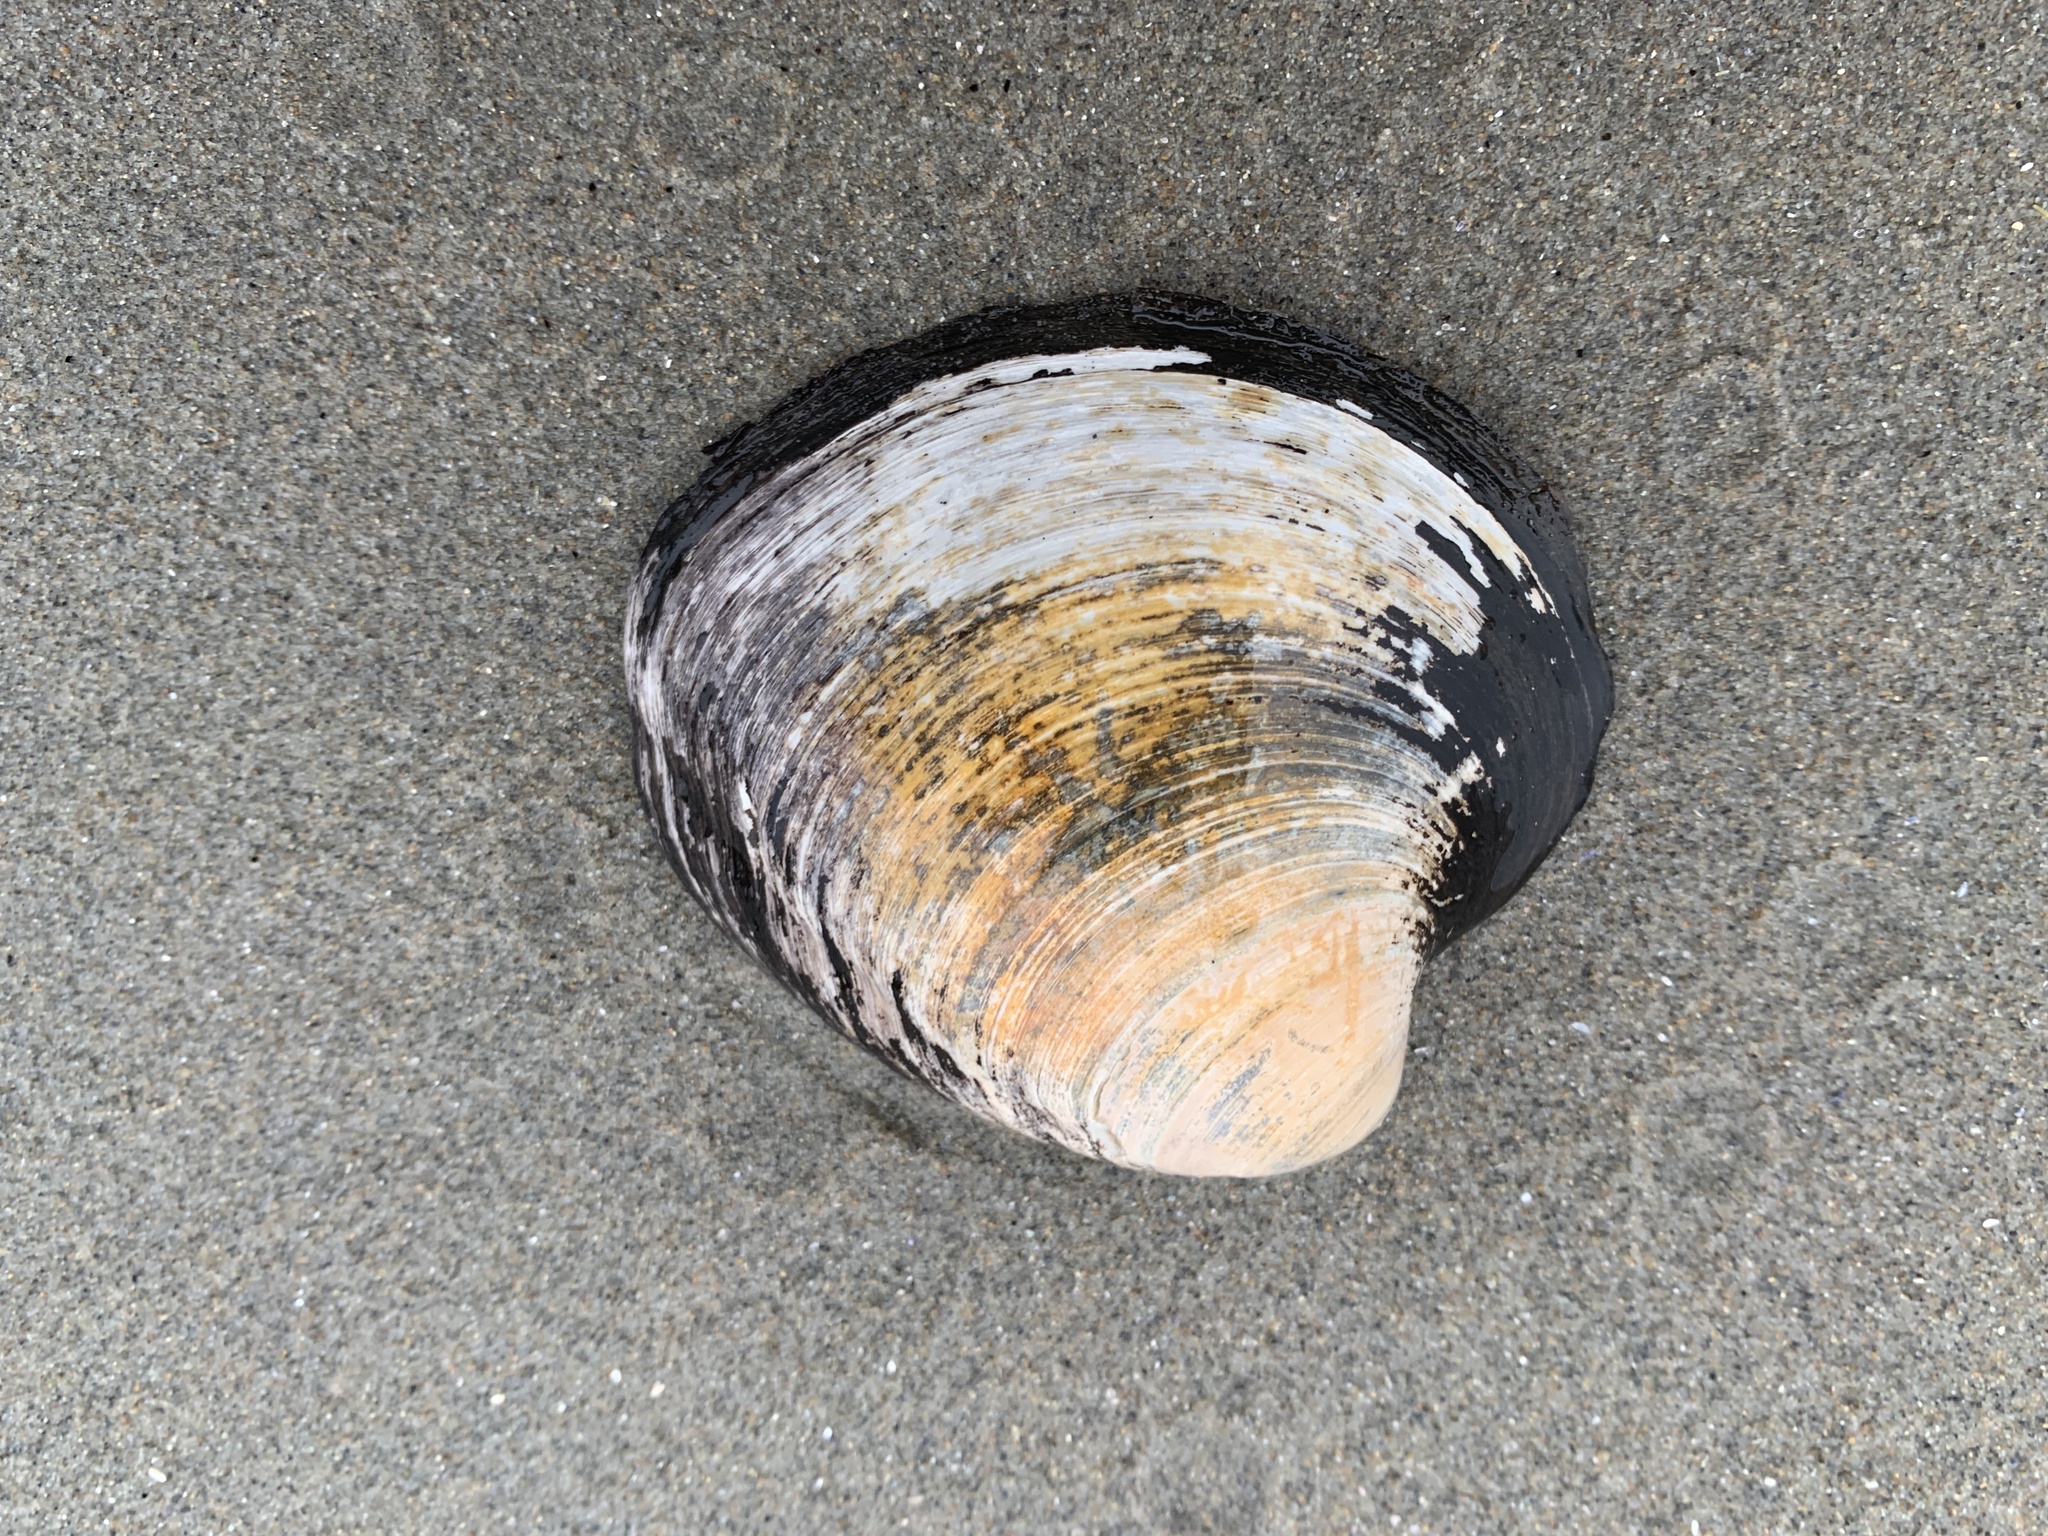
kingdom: Animalia
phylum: Mollusca
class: Bivalvia
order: Venerida
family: Arcticidae
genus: Arctica
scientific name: Arctica islandica
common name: Icelandic cyprine
